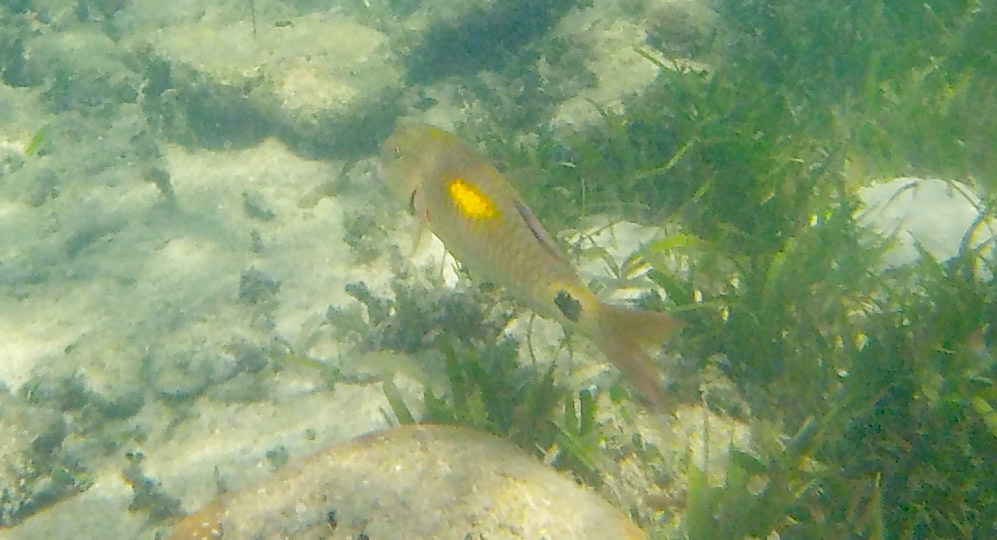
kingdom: Animalia
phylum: Chordata
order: Perciformes
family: Mullidae
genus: Parupeneus
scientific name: Parupeneus indicus
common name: Indian goatfish
